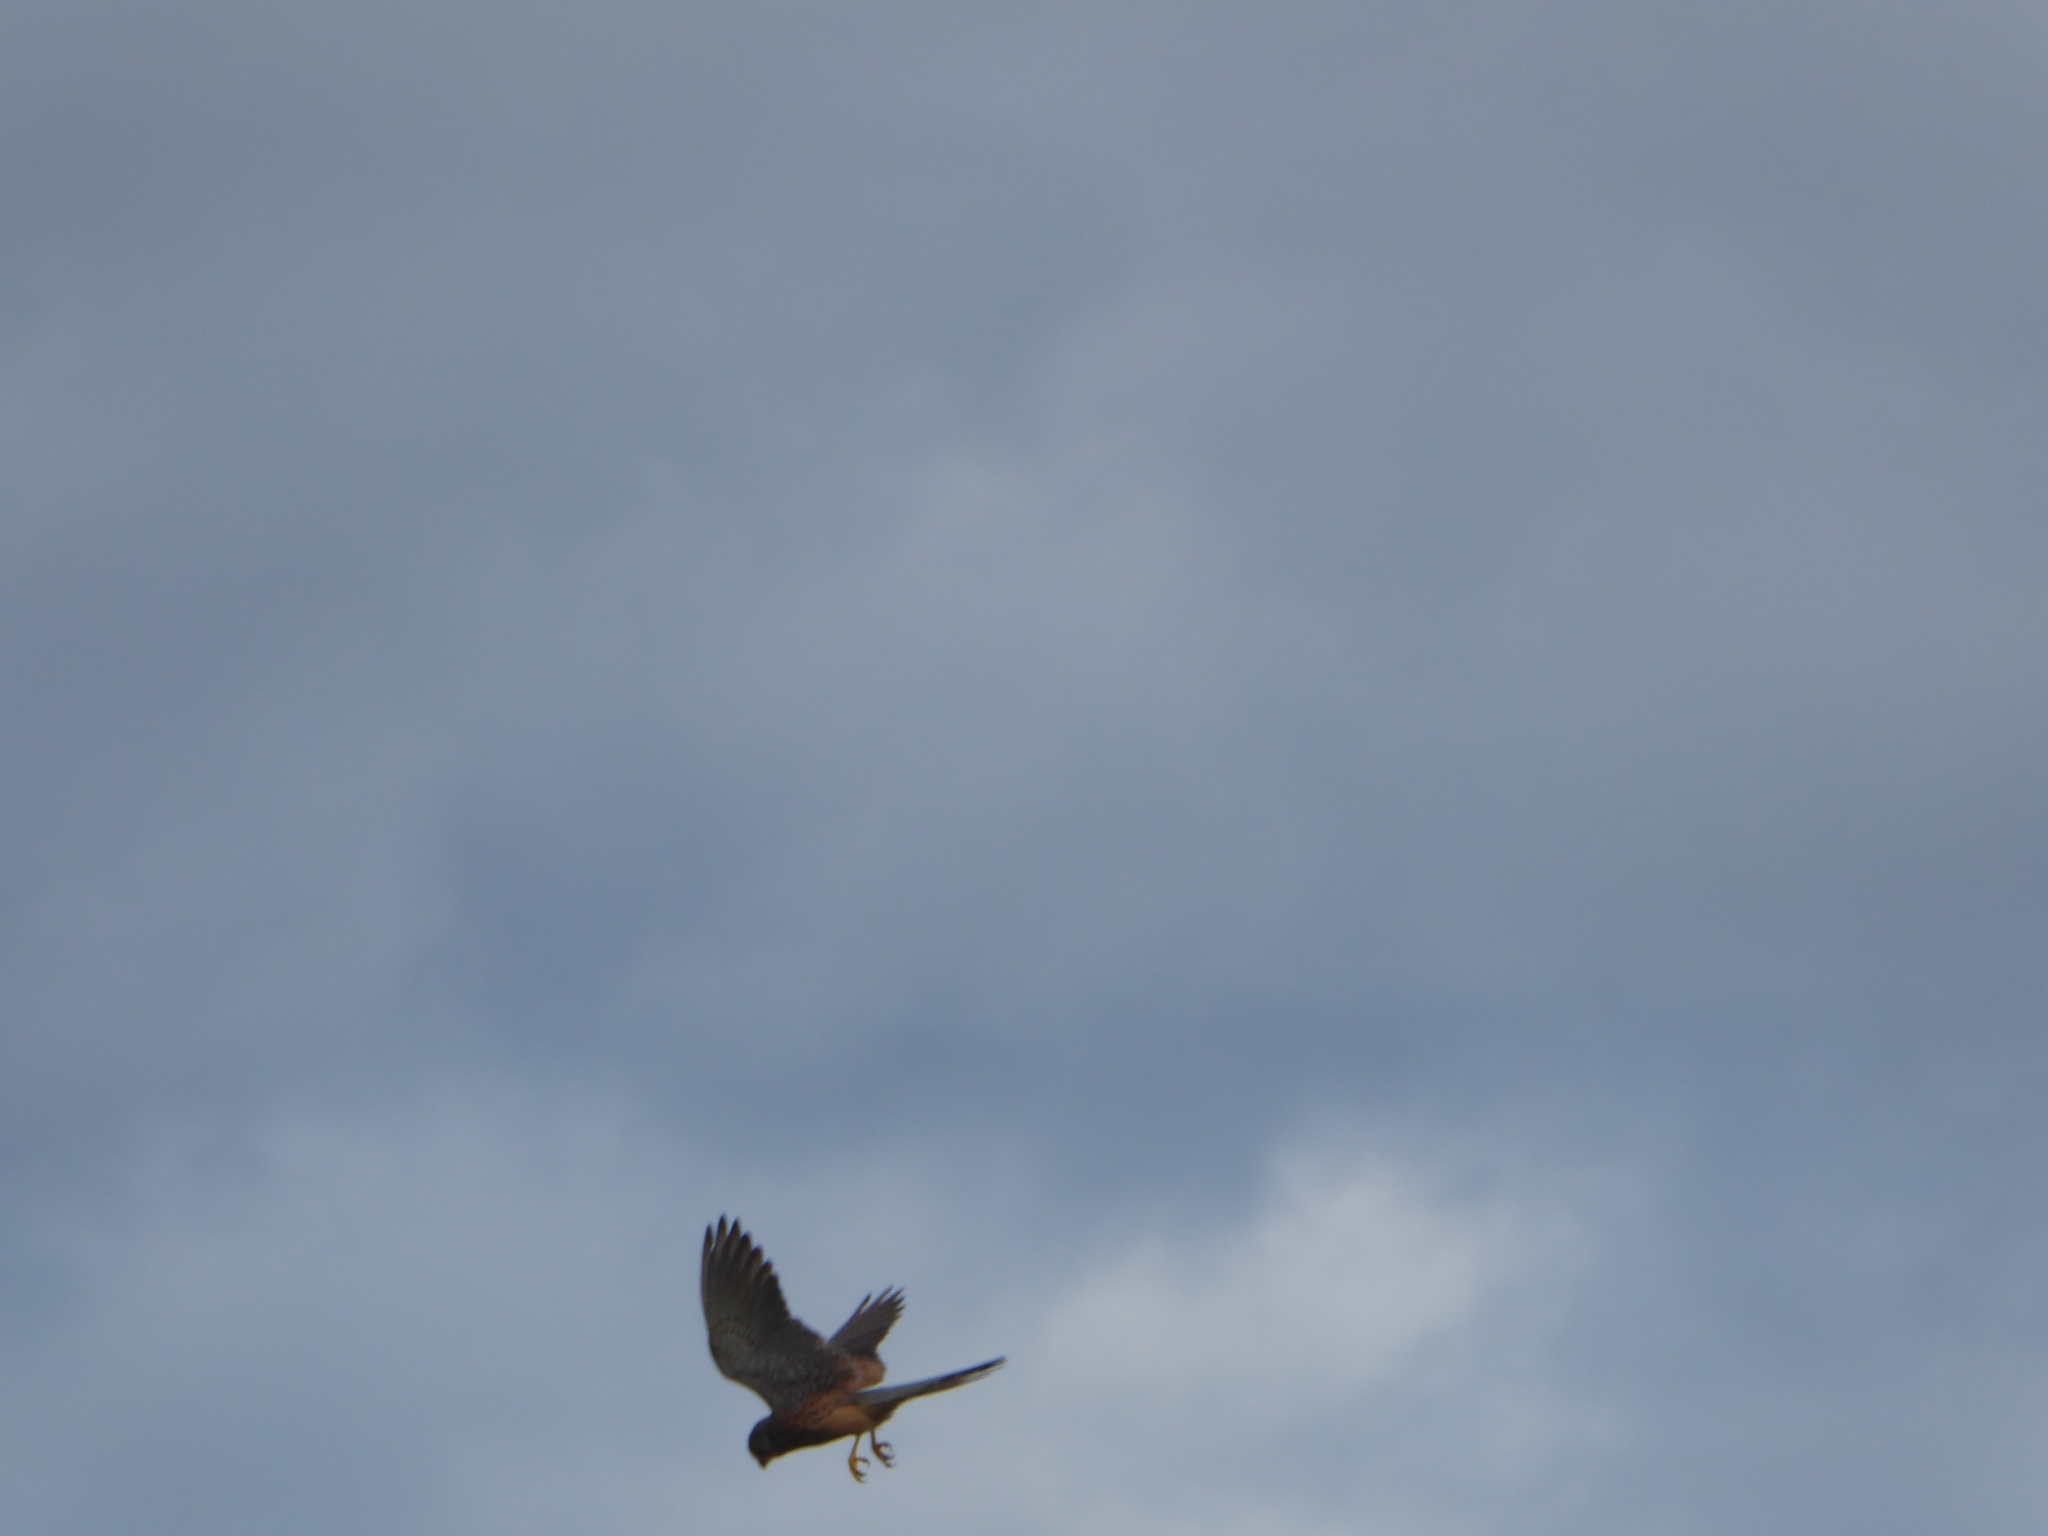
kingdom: Animalia
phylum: Chordata
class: Aves
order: Falconiformes
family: Falconidae
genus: Falco
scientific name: Falco tinnunculus
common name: Common kestrel
